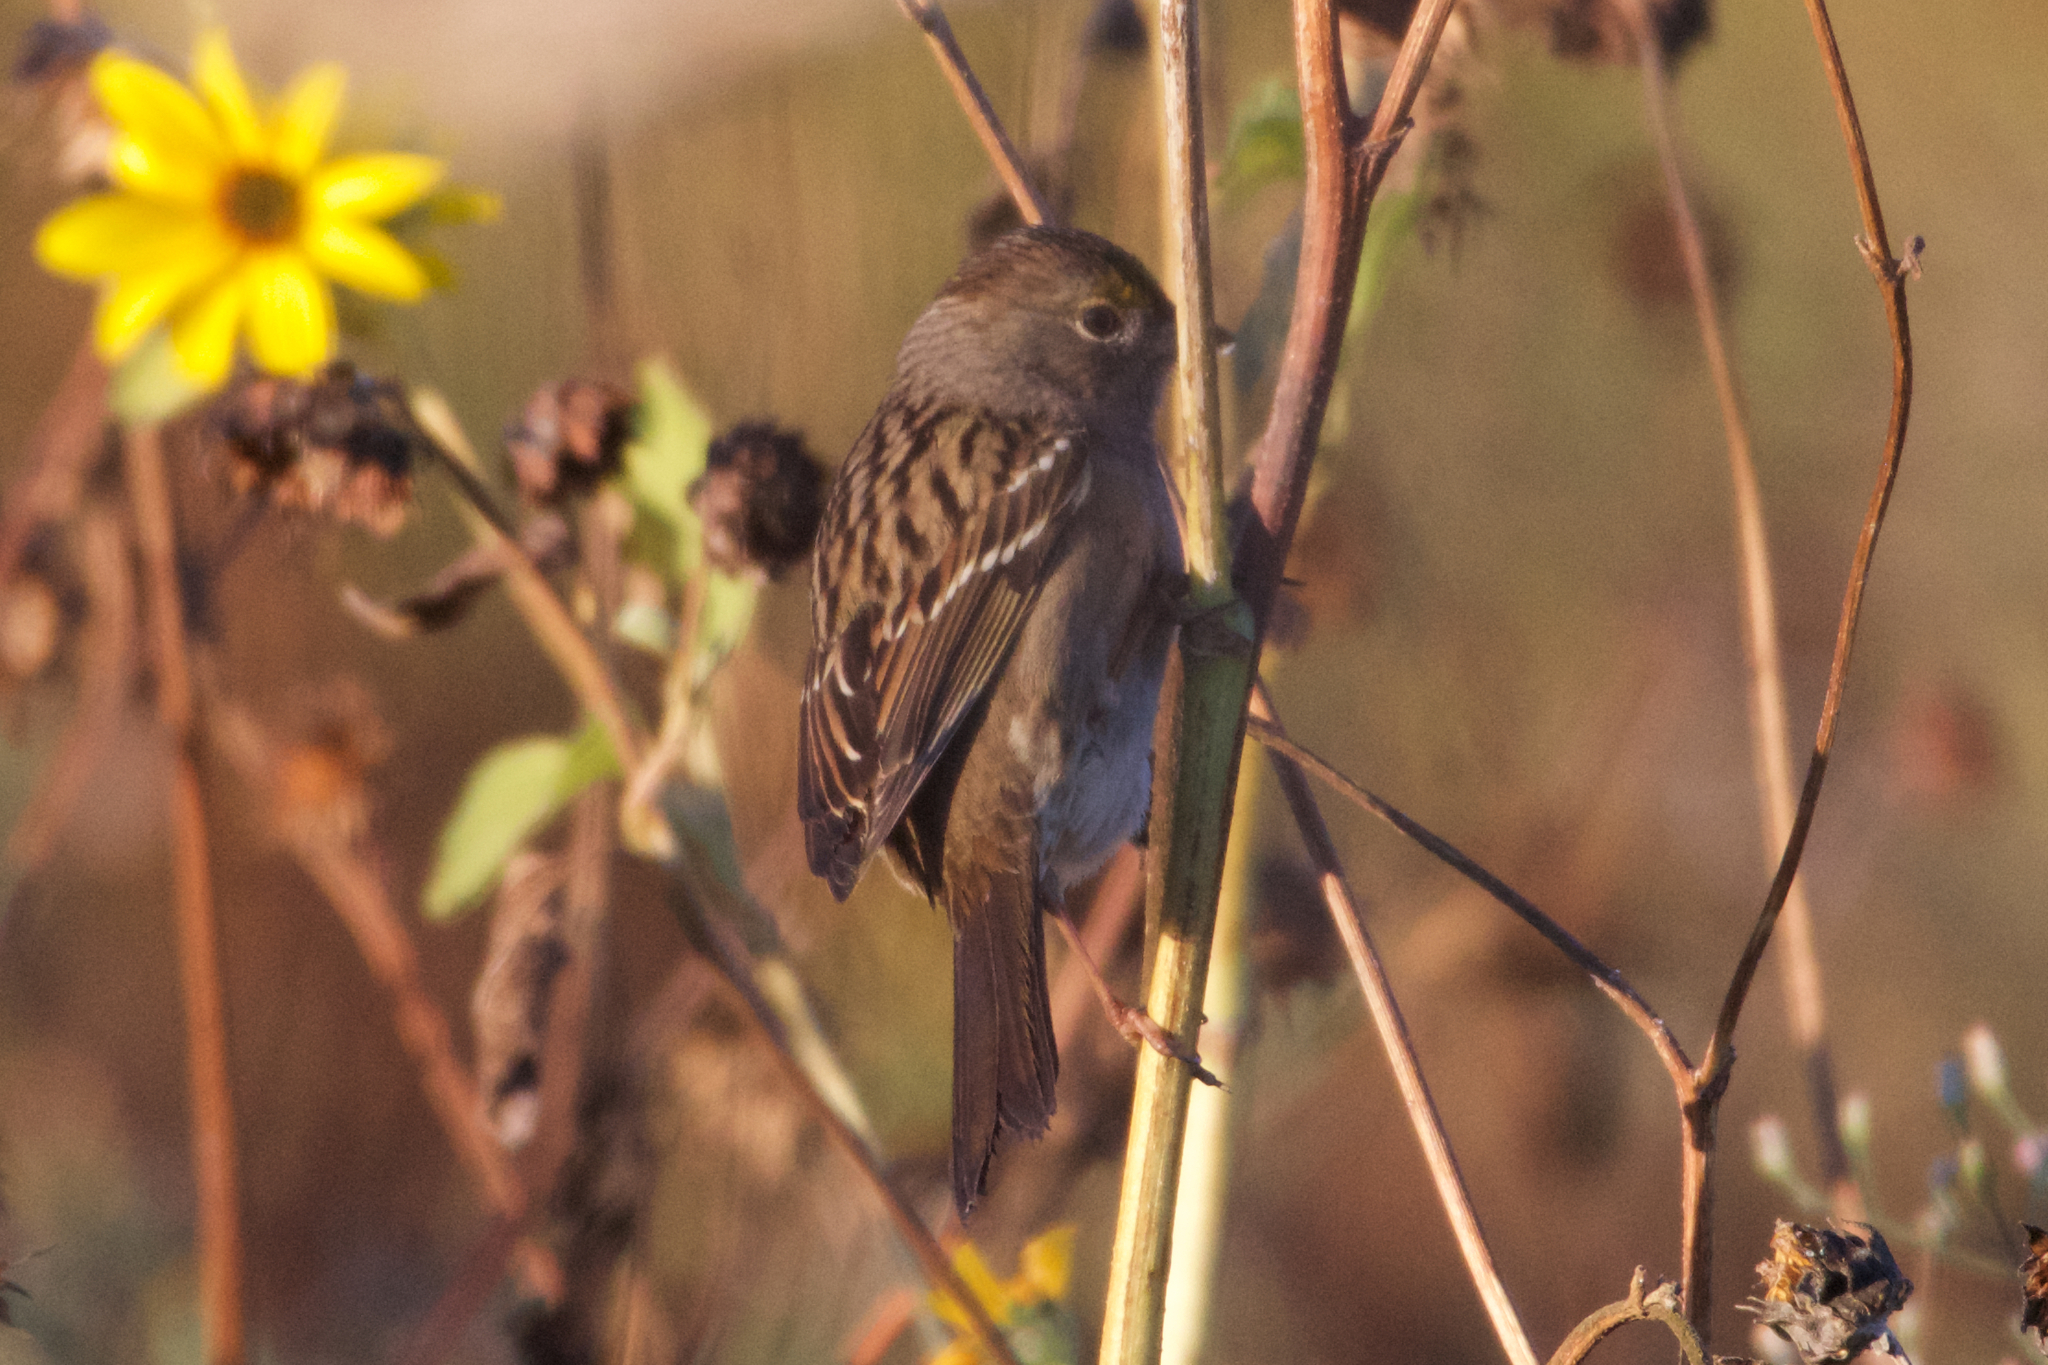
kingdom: Animalia
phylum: Chordata
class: Aves
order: Passeriformes
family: Passerellidae
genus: Zonotrichia
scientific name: Zonotrichia atricapilla
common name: Golden-crowned sparrow
